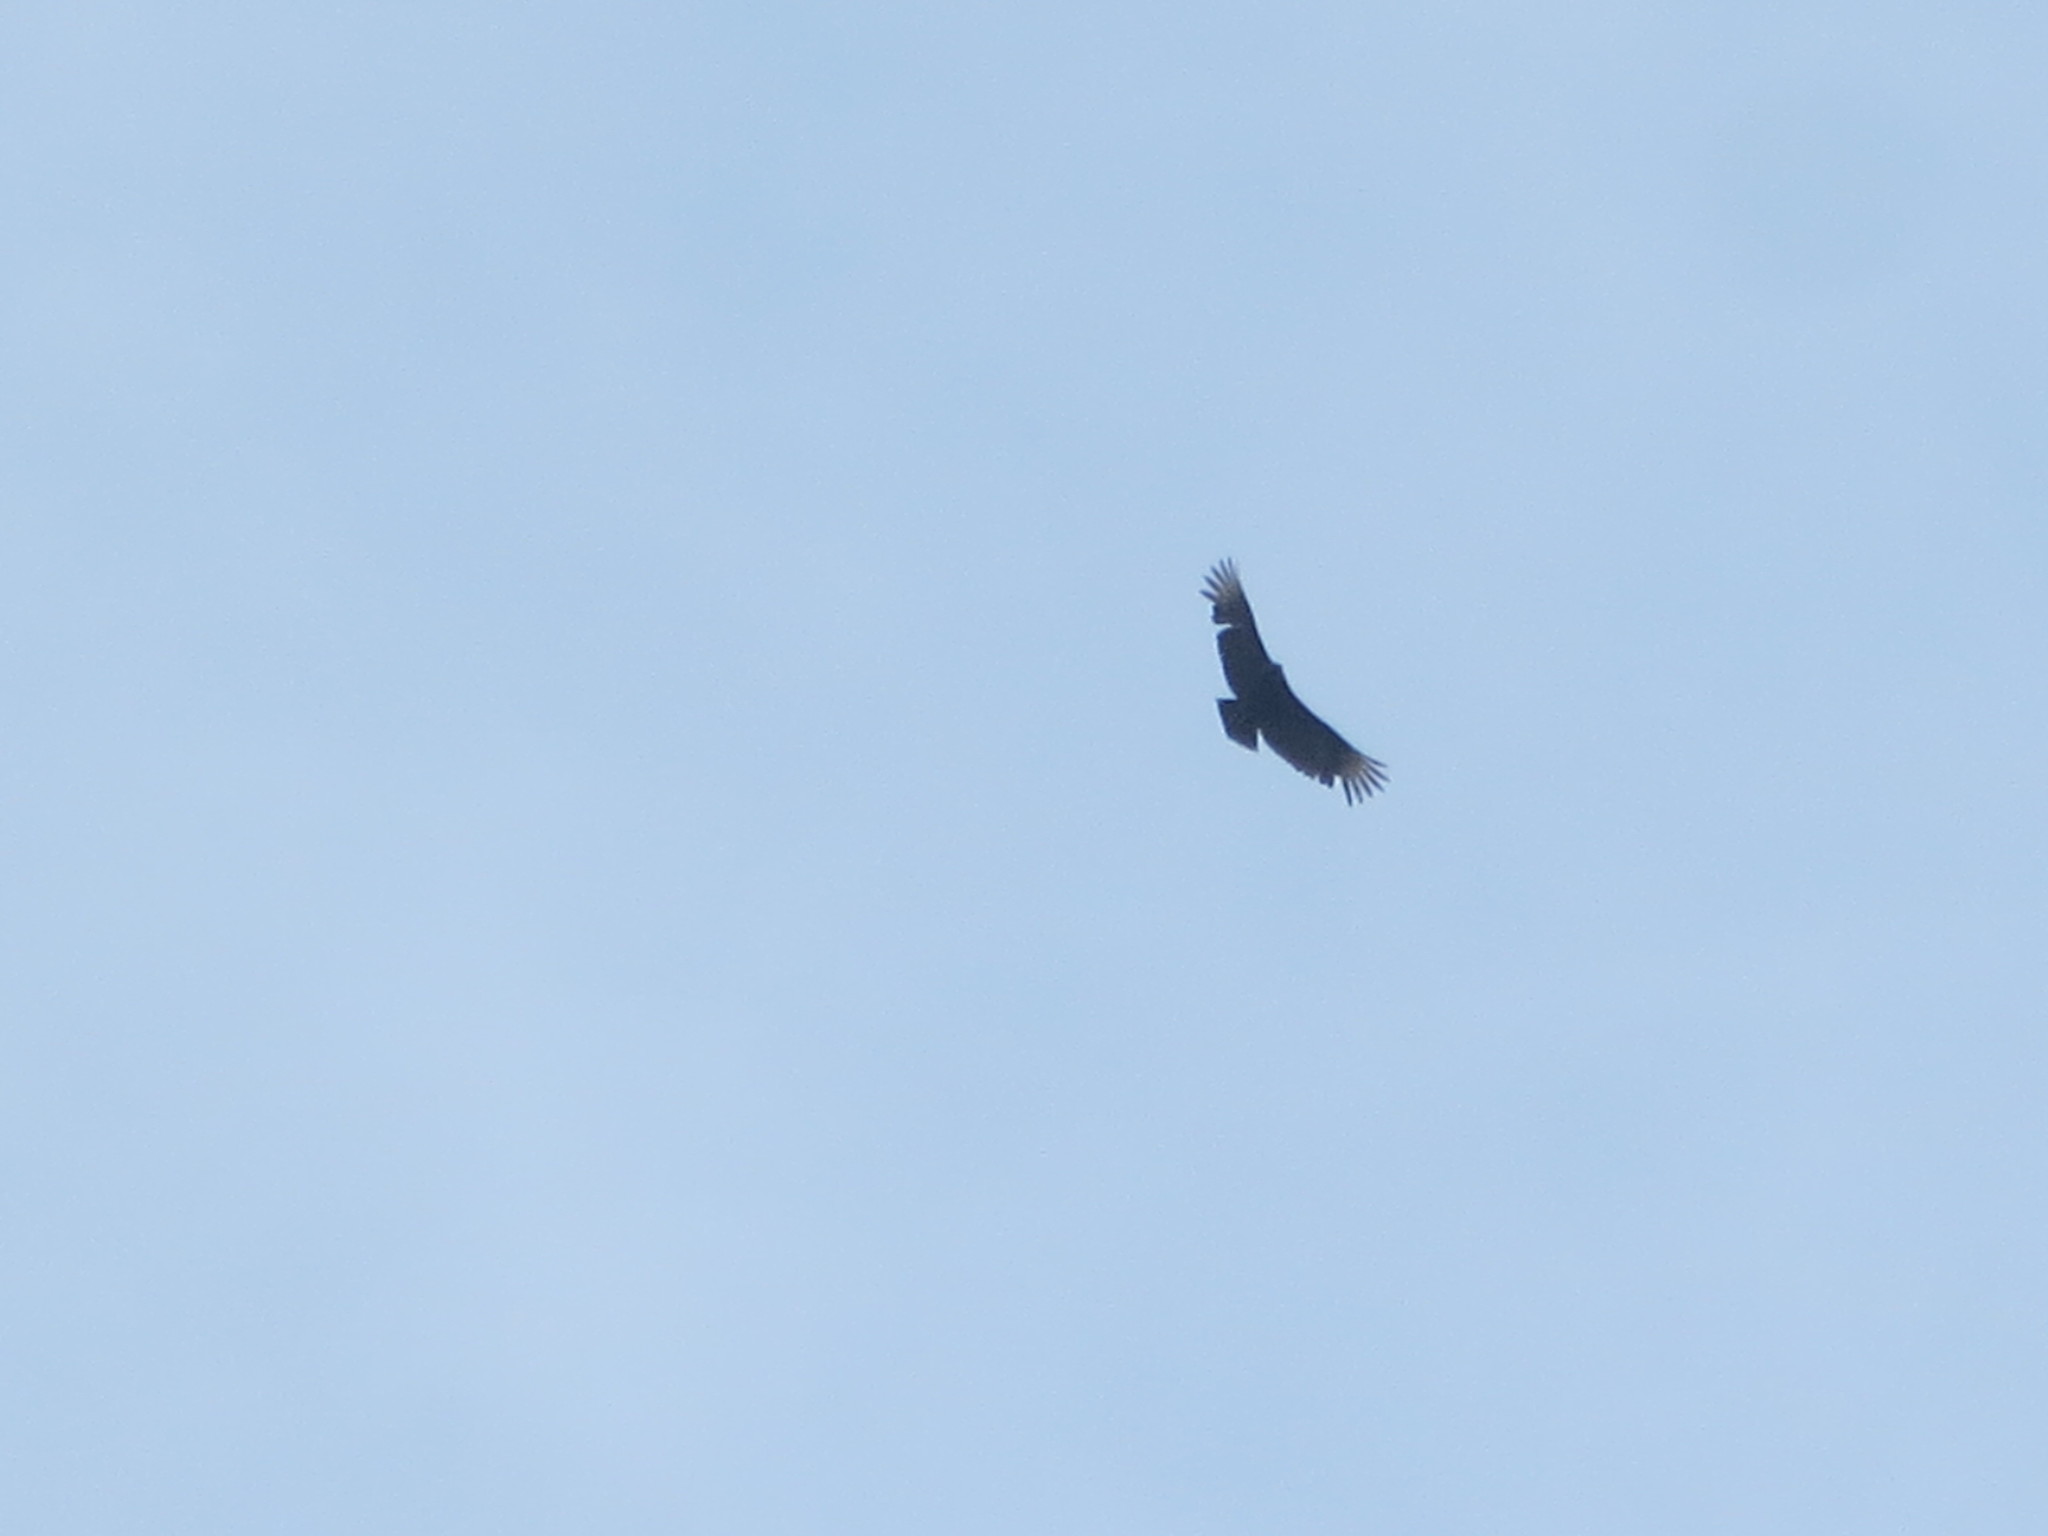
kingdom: Animalia
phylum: Chordata
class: Aves
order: Accipitriformes
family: Cathartidae
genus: Coragyps
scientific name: Coragyps atratus
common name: Black vulture
